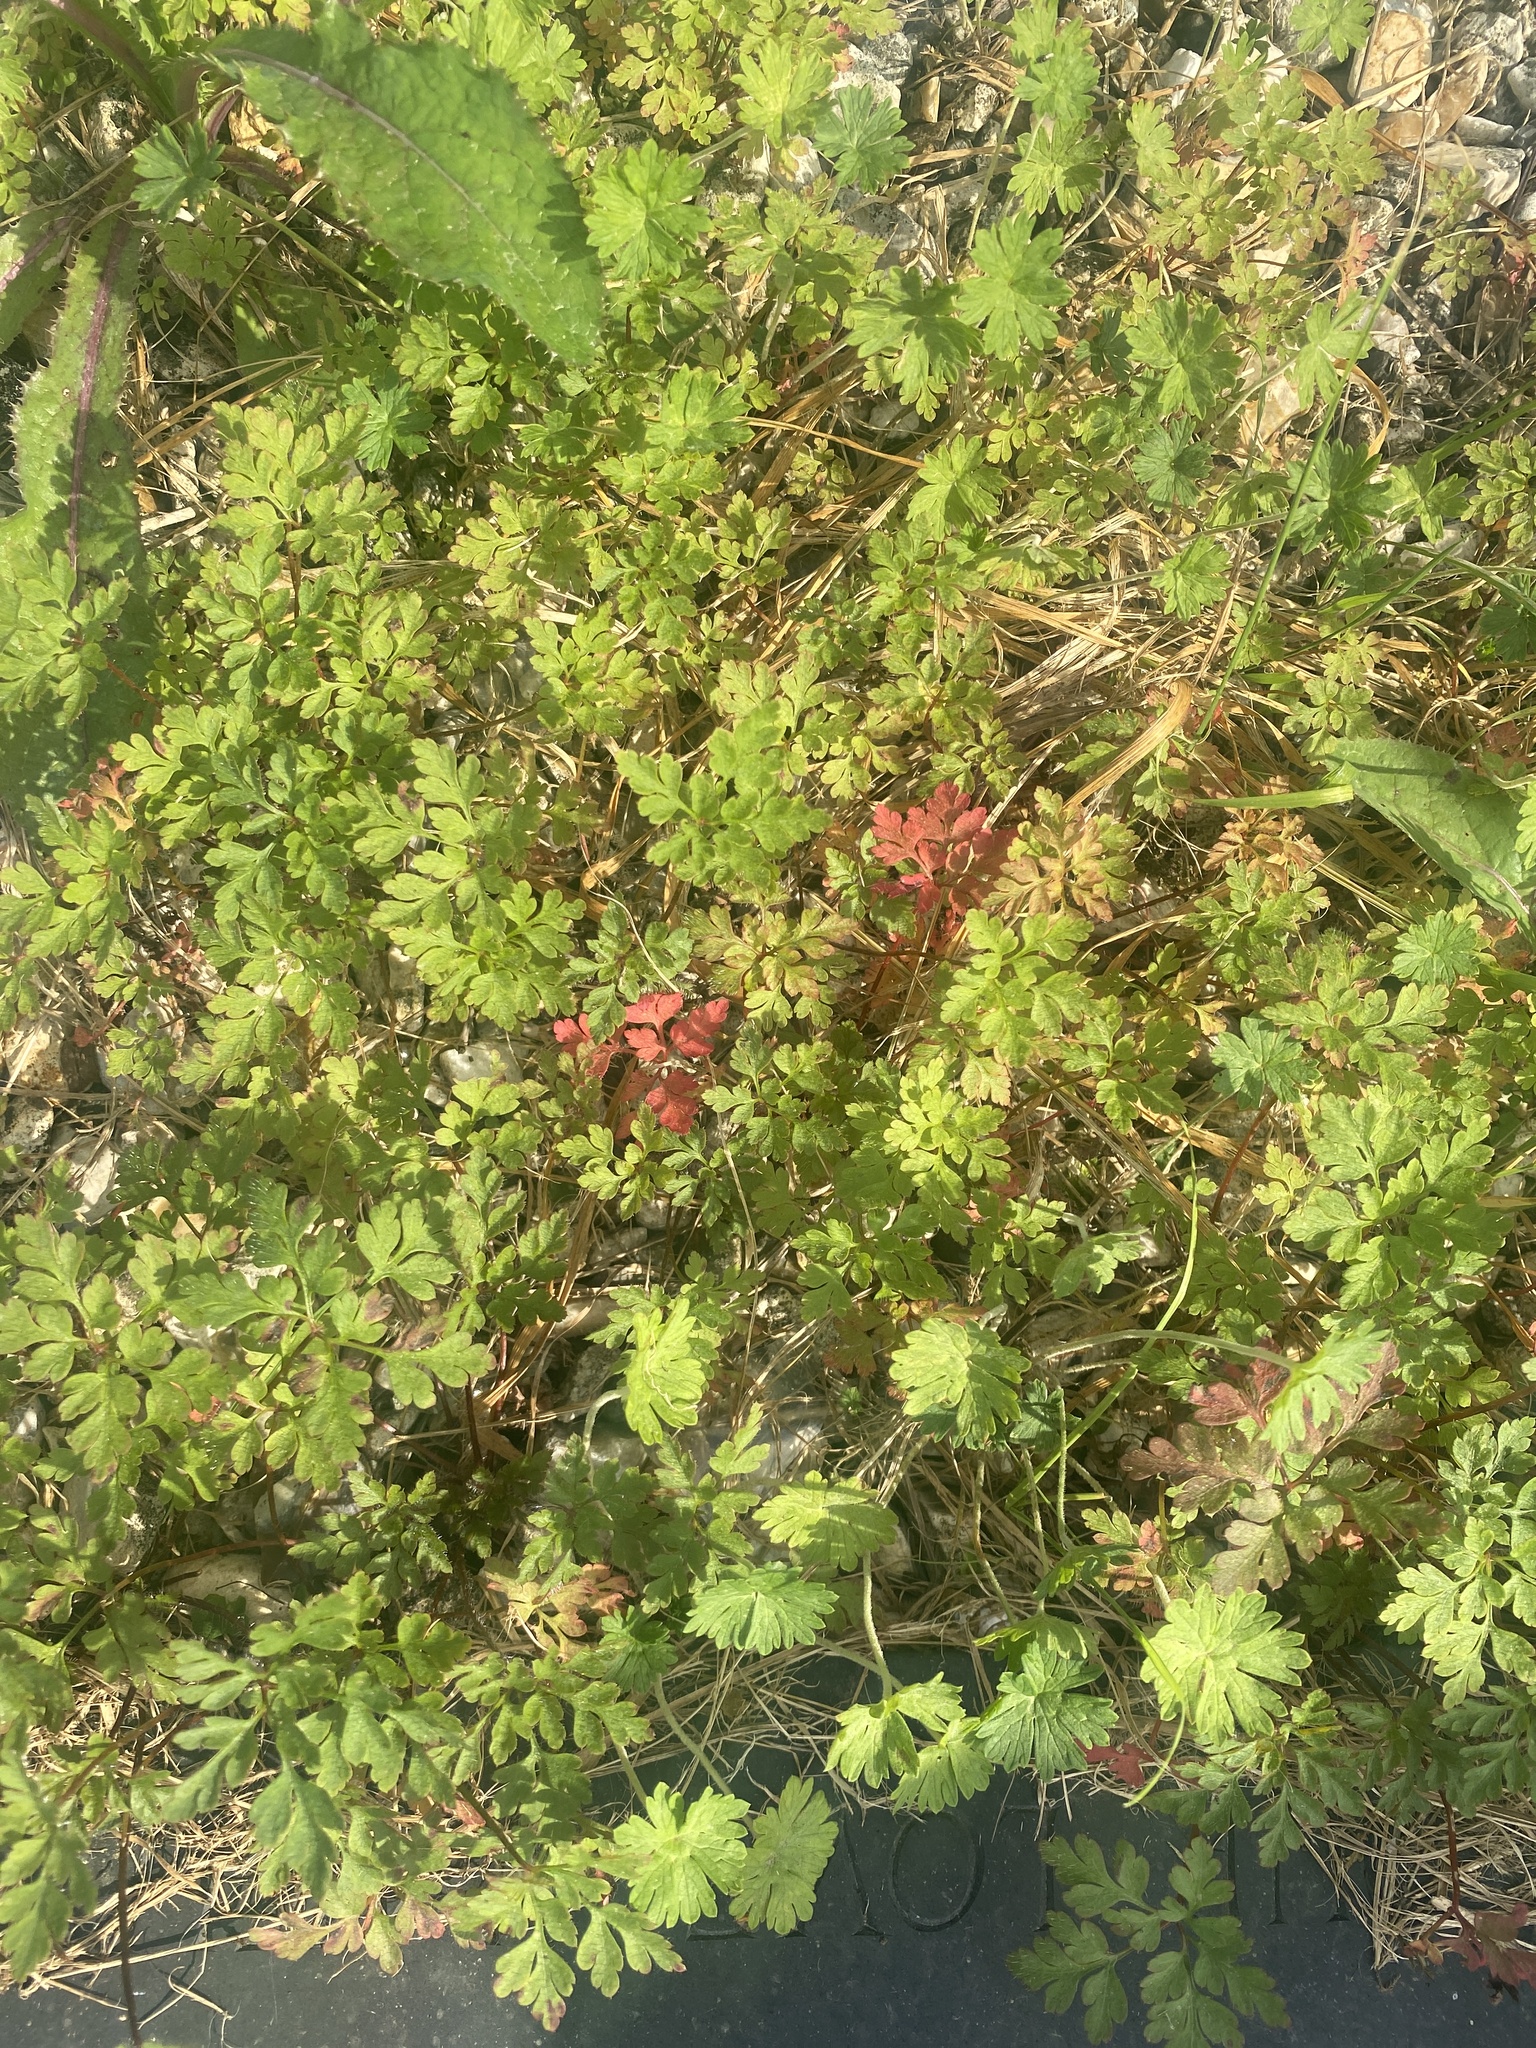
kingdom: Plantae
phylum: Tracheophyta
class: Magnoliopsida
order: Geraniales
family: Geraniaceae
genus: Geranium
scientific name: Geranium robertianum
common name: Herb-robert
